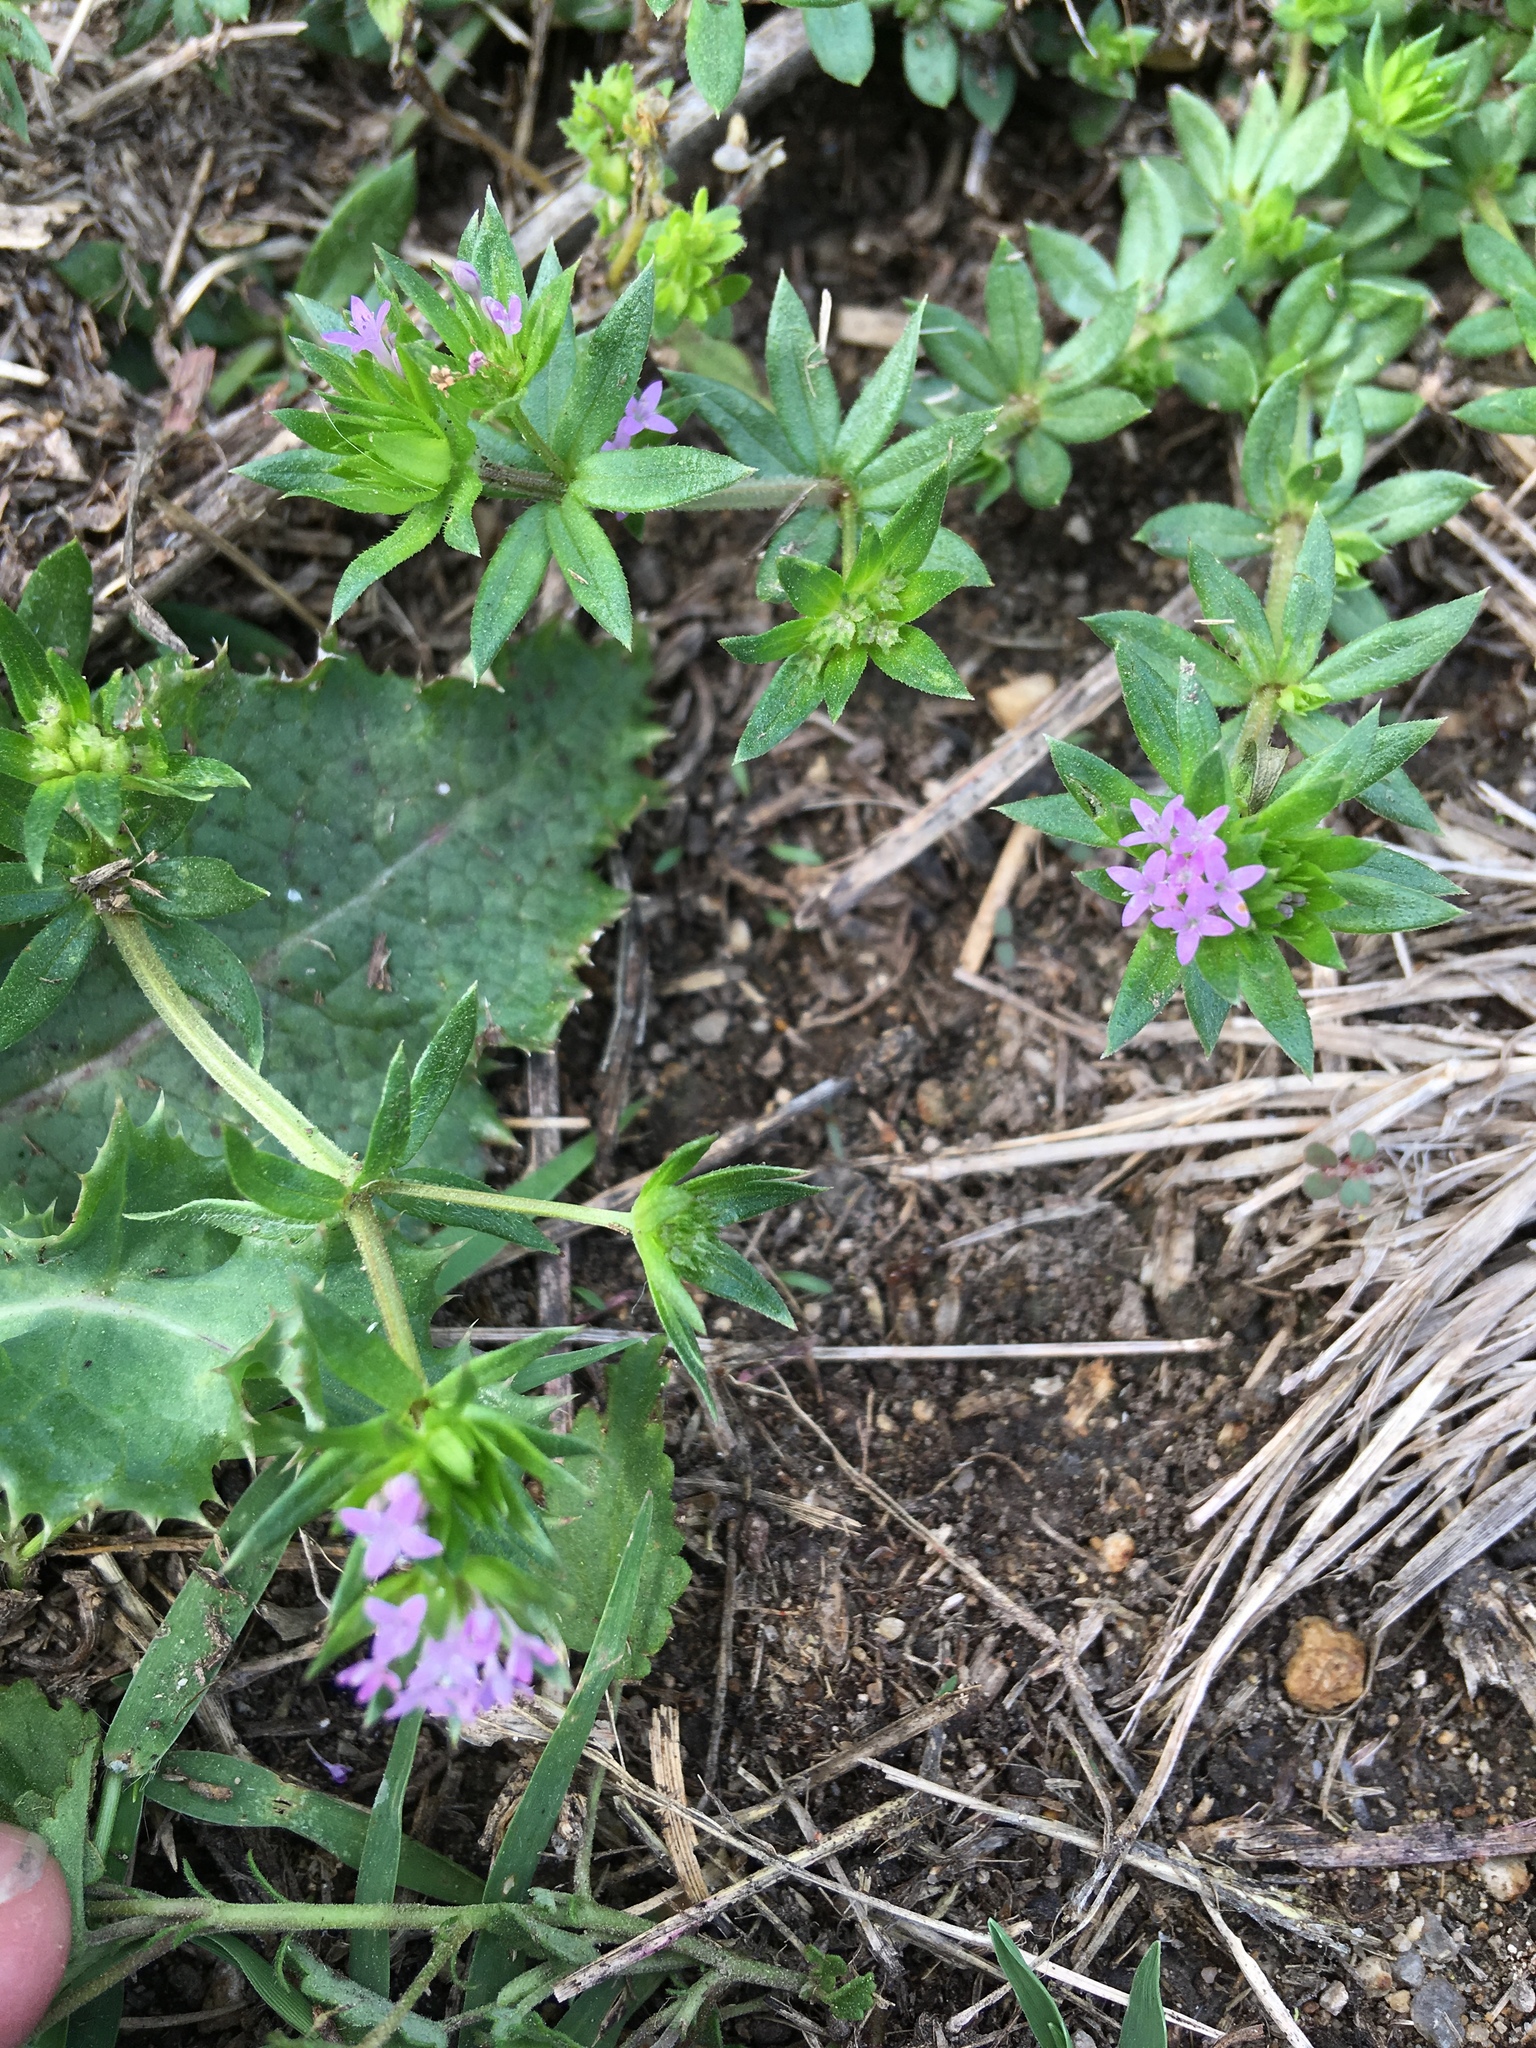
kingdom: Plantae
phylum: Tracheophyta
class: Magnoliopsida
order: Gentianales
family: Rubiaceae
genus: Sherardia
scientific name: Sherardia arvensis
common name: Field madder
